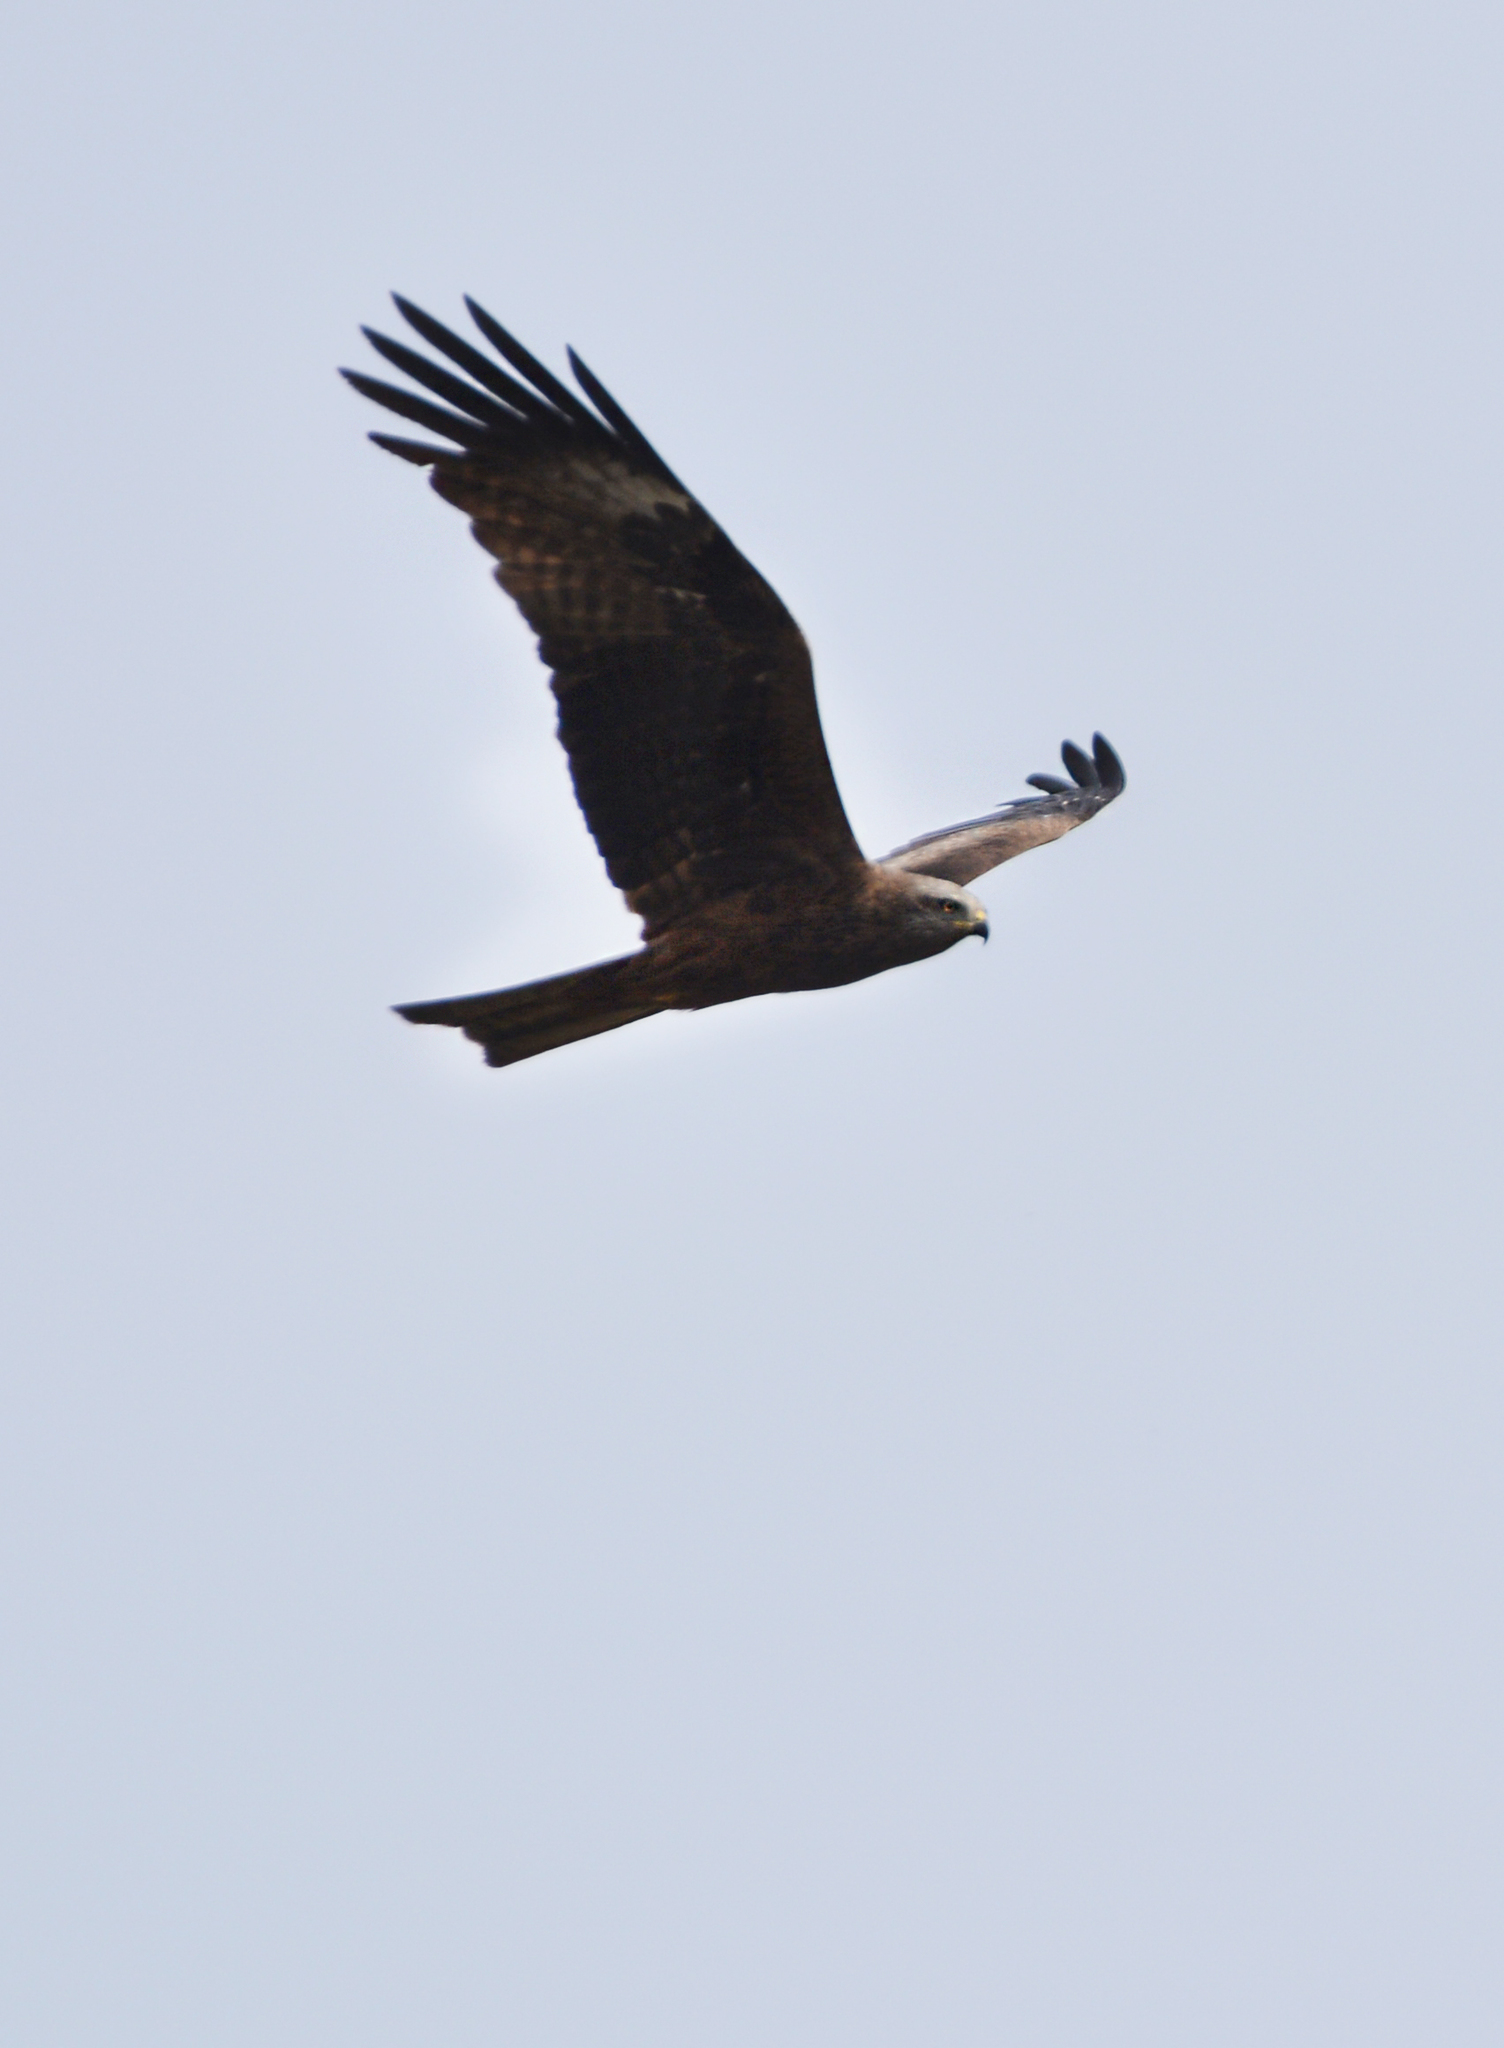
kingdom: Animalia
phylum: Chordata
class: Aves
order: Accipitriformes
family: Accipitridae
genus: Milvus
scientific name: Milvus migrans
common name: Black kite
